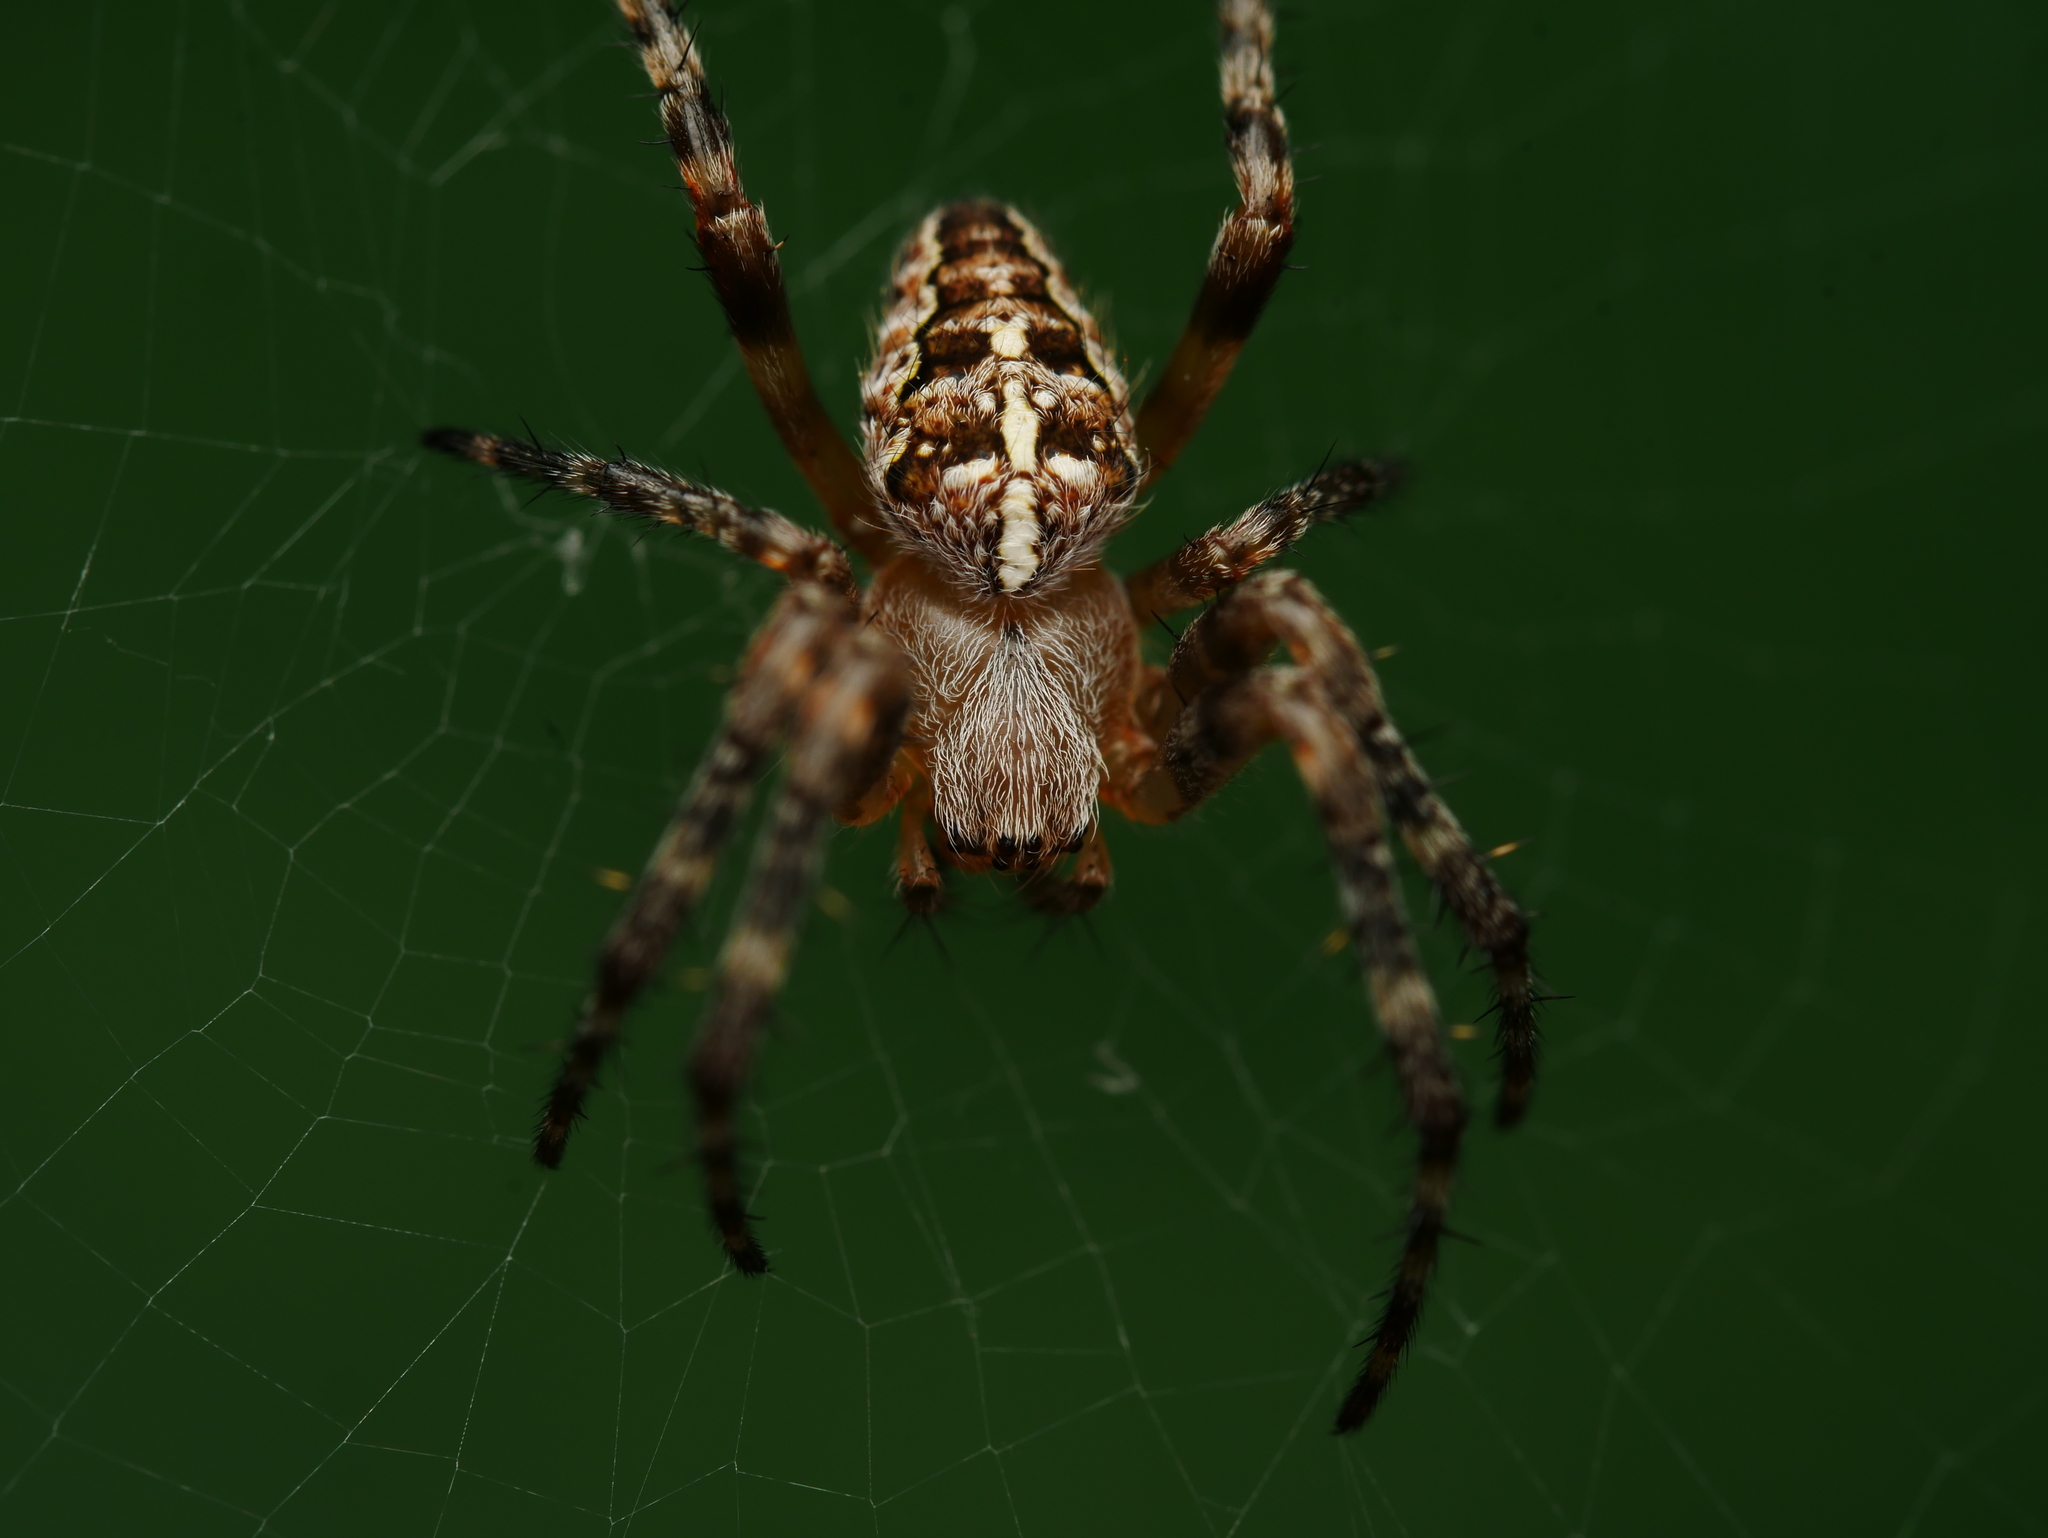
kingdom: Animalia
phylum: Arthropoda
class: Arachnida
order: Araneae
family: Araneidae
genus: Araneus
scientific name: Araneus diadematus
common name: Cross orbweaver
